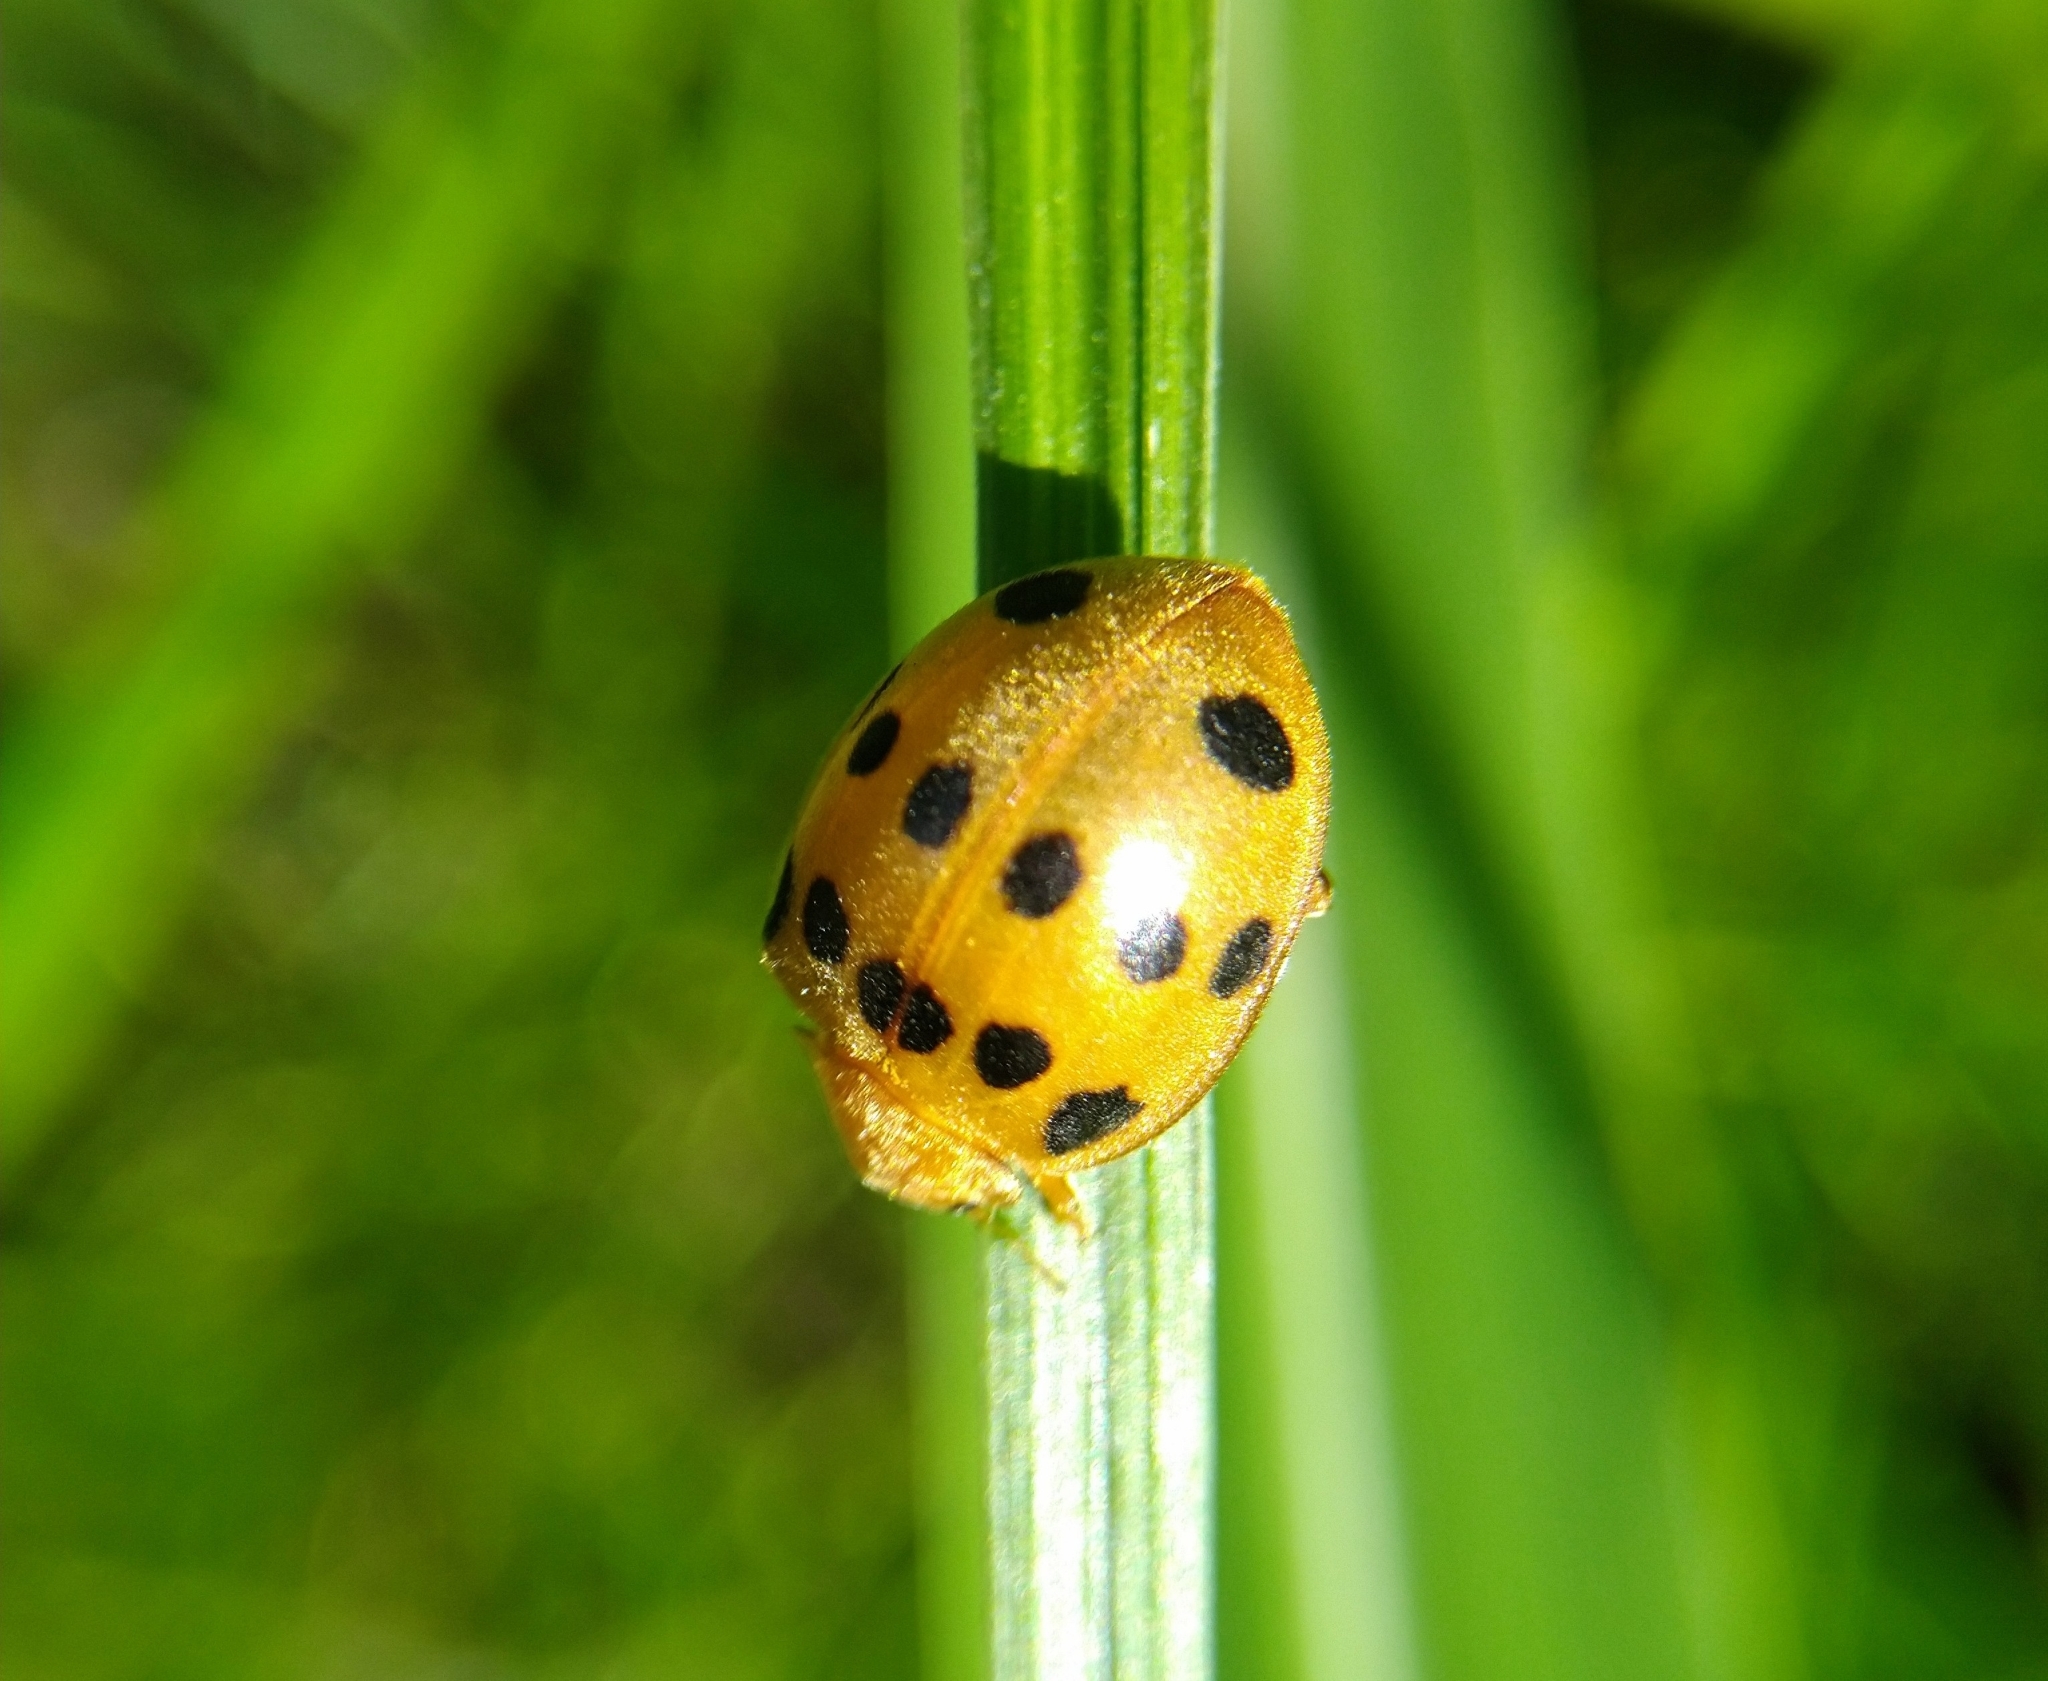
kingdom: Animalia
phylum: Arthropoda
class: Insecta
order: Coleoptera
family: Coccinellidae
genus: Epilachna
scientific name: Epilachna tredecimnotata
